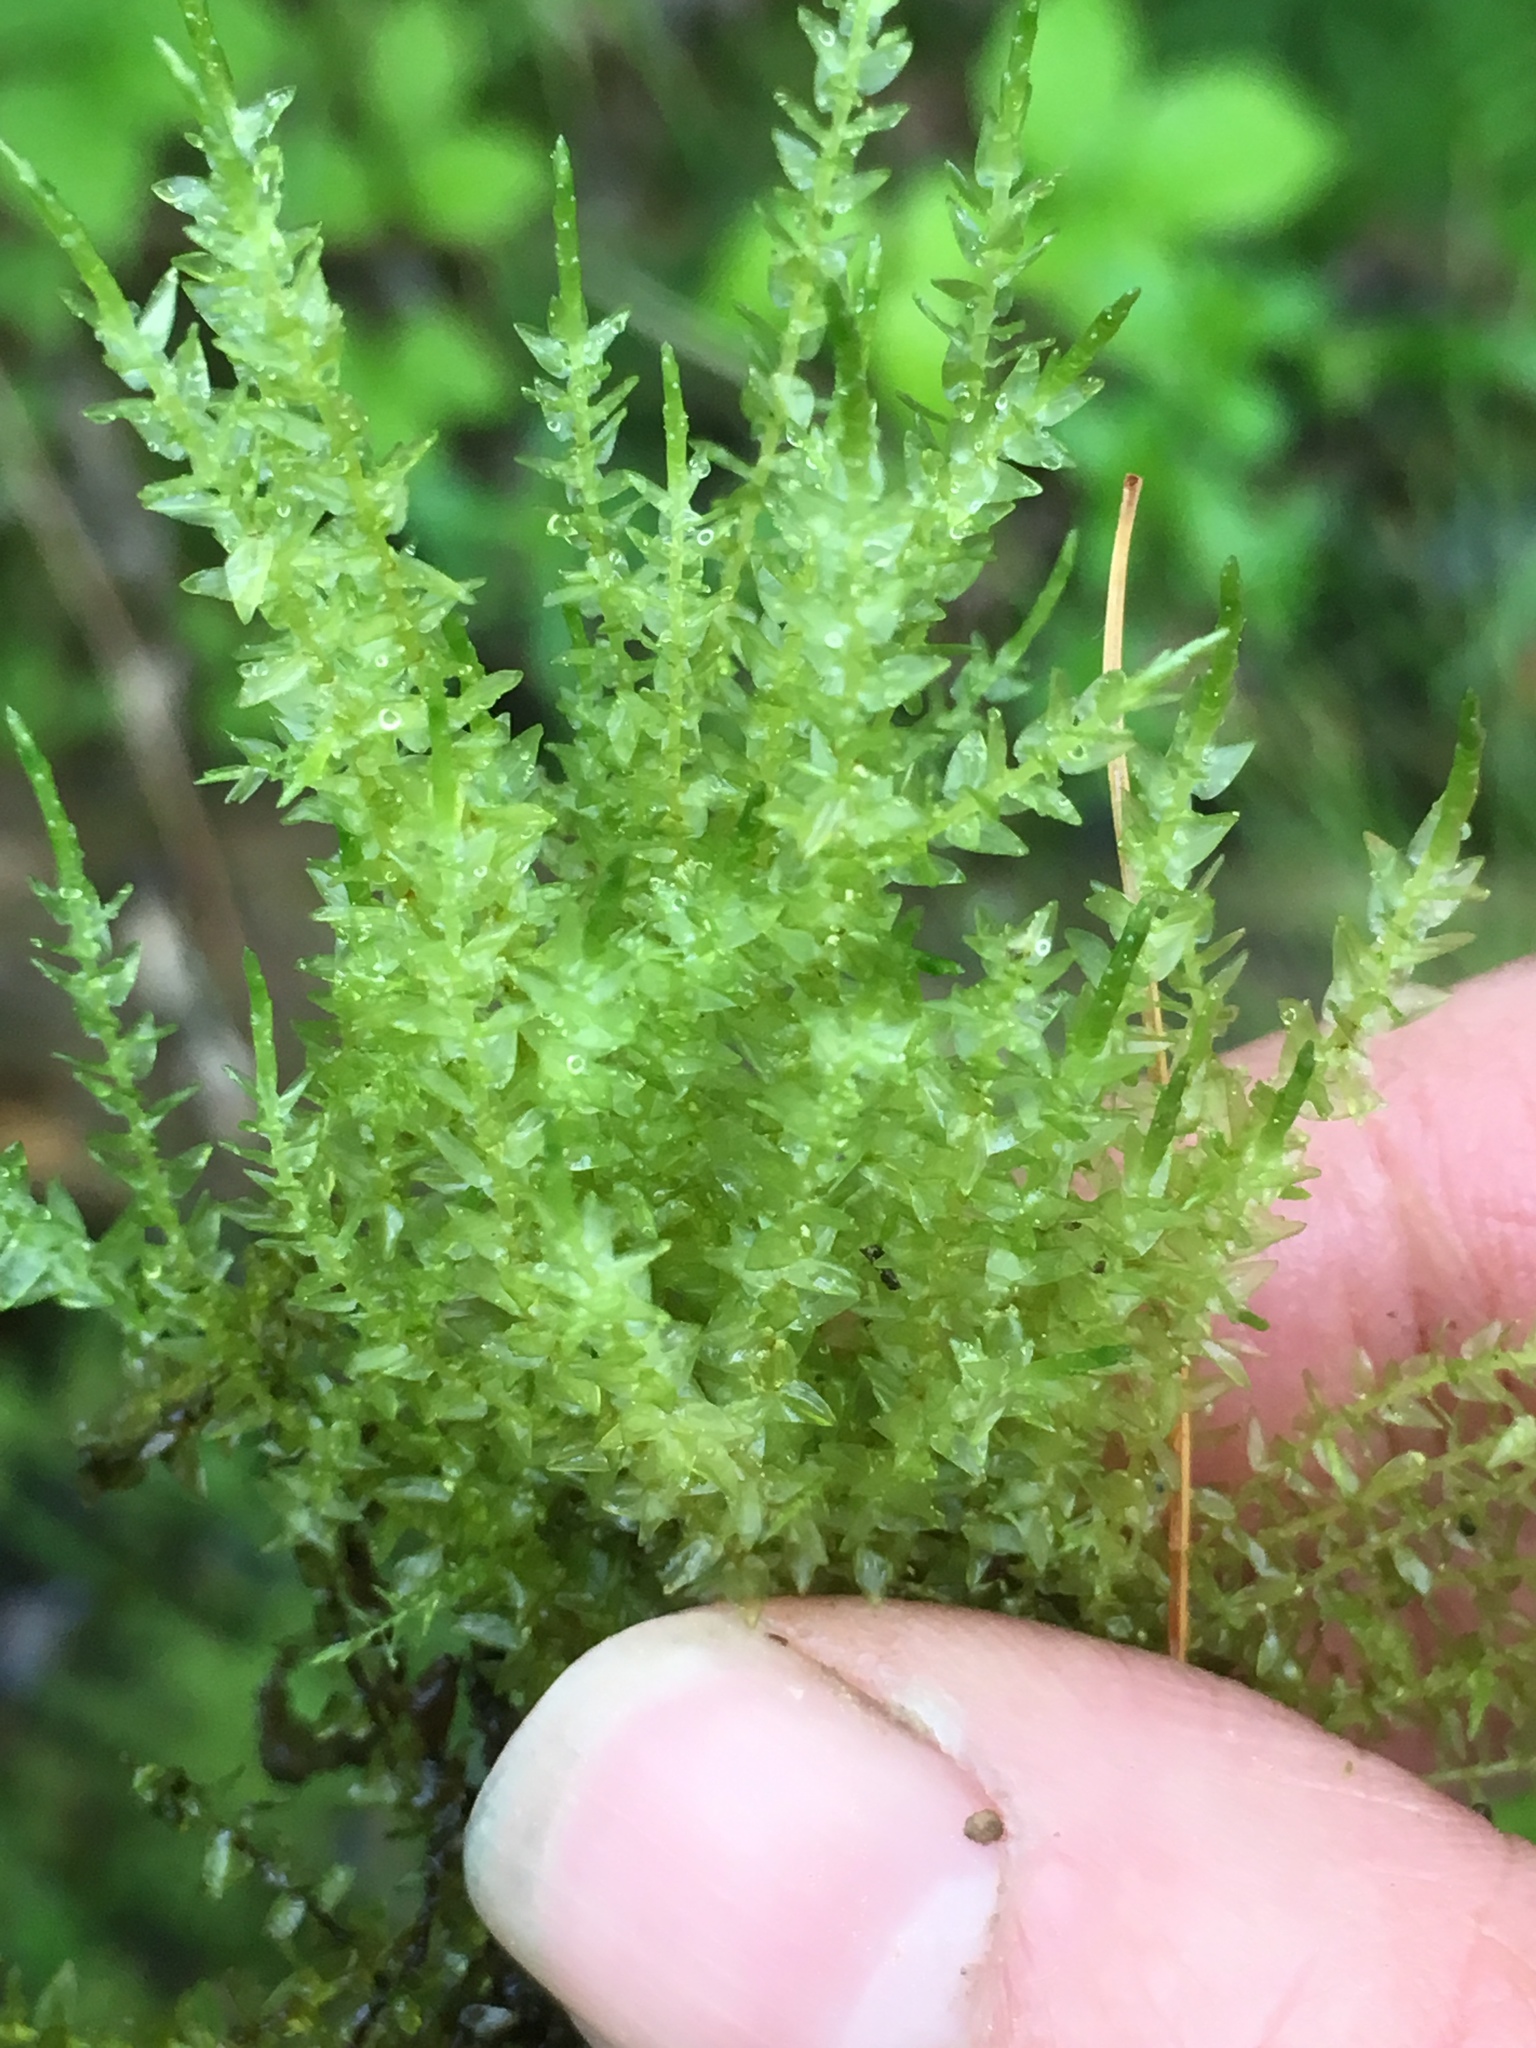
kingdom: Plantae
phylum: Bryophyta
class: Bryopsida
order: Hypnales
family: Calliergonaceae
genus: Calliergon
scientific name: Calliergon
